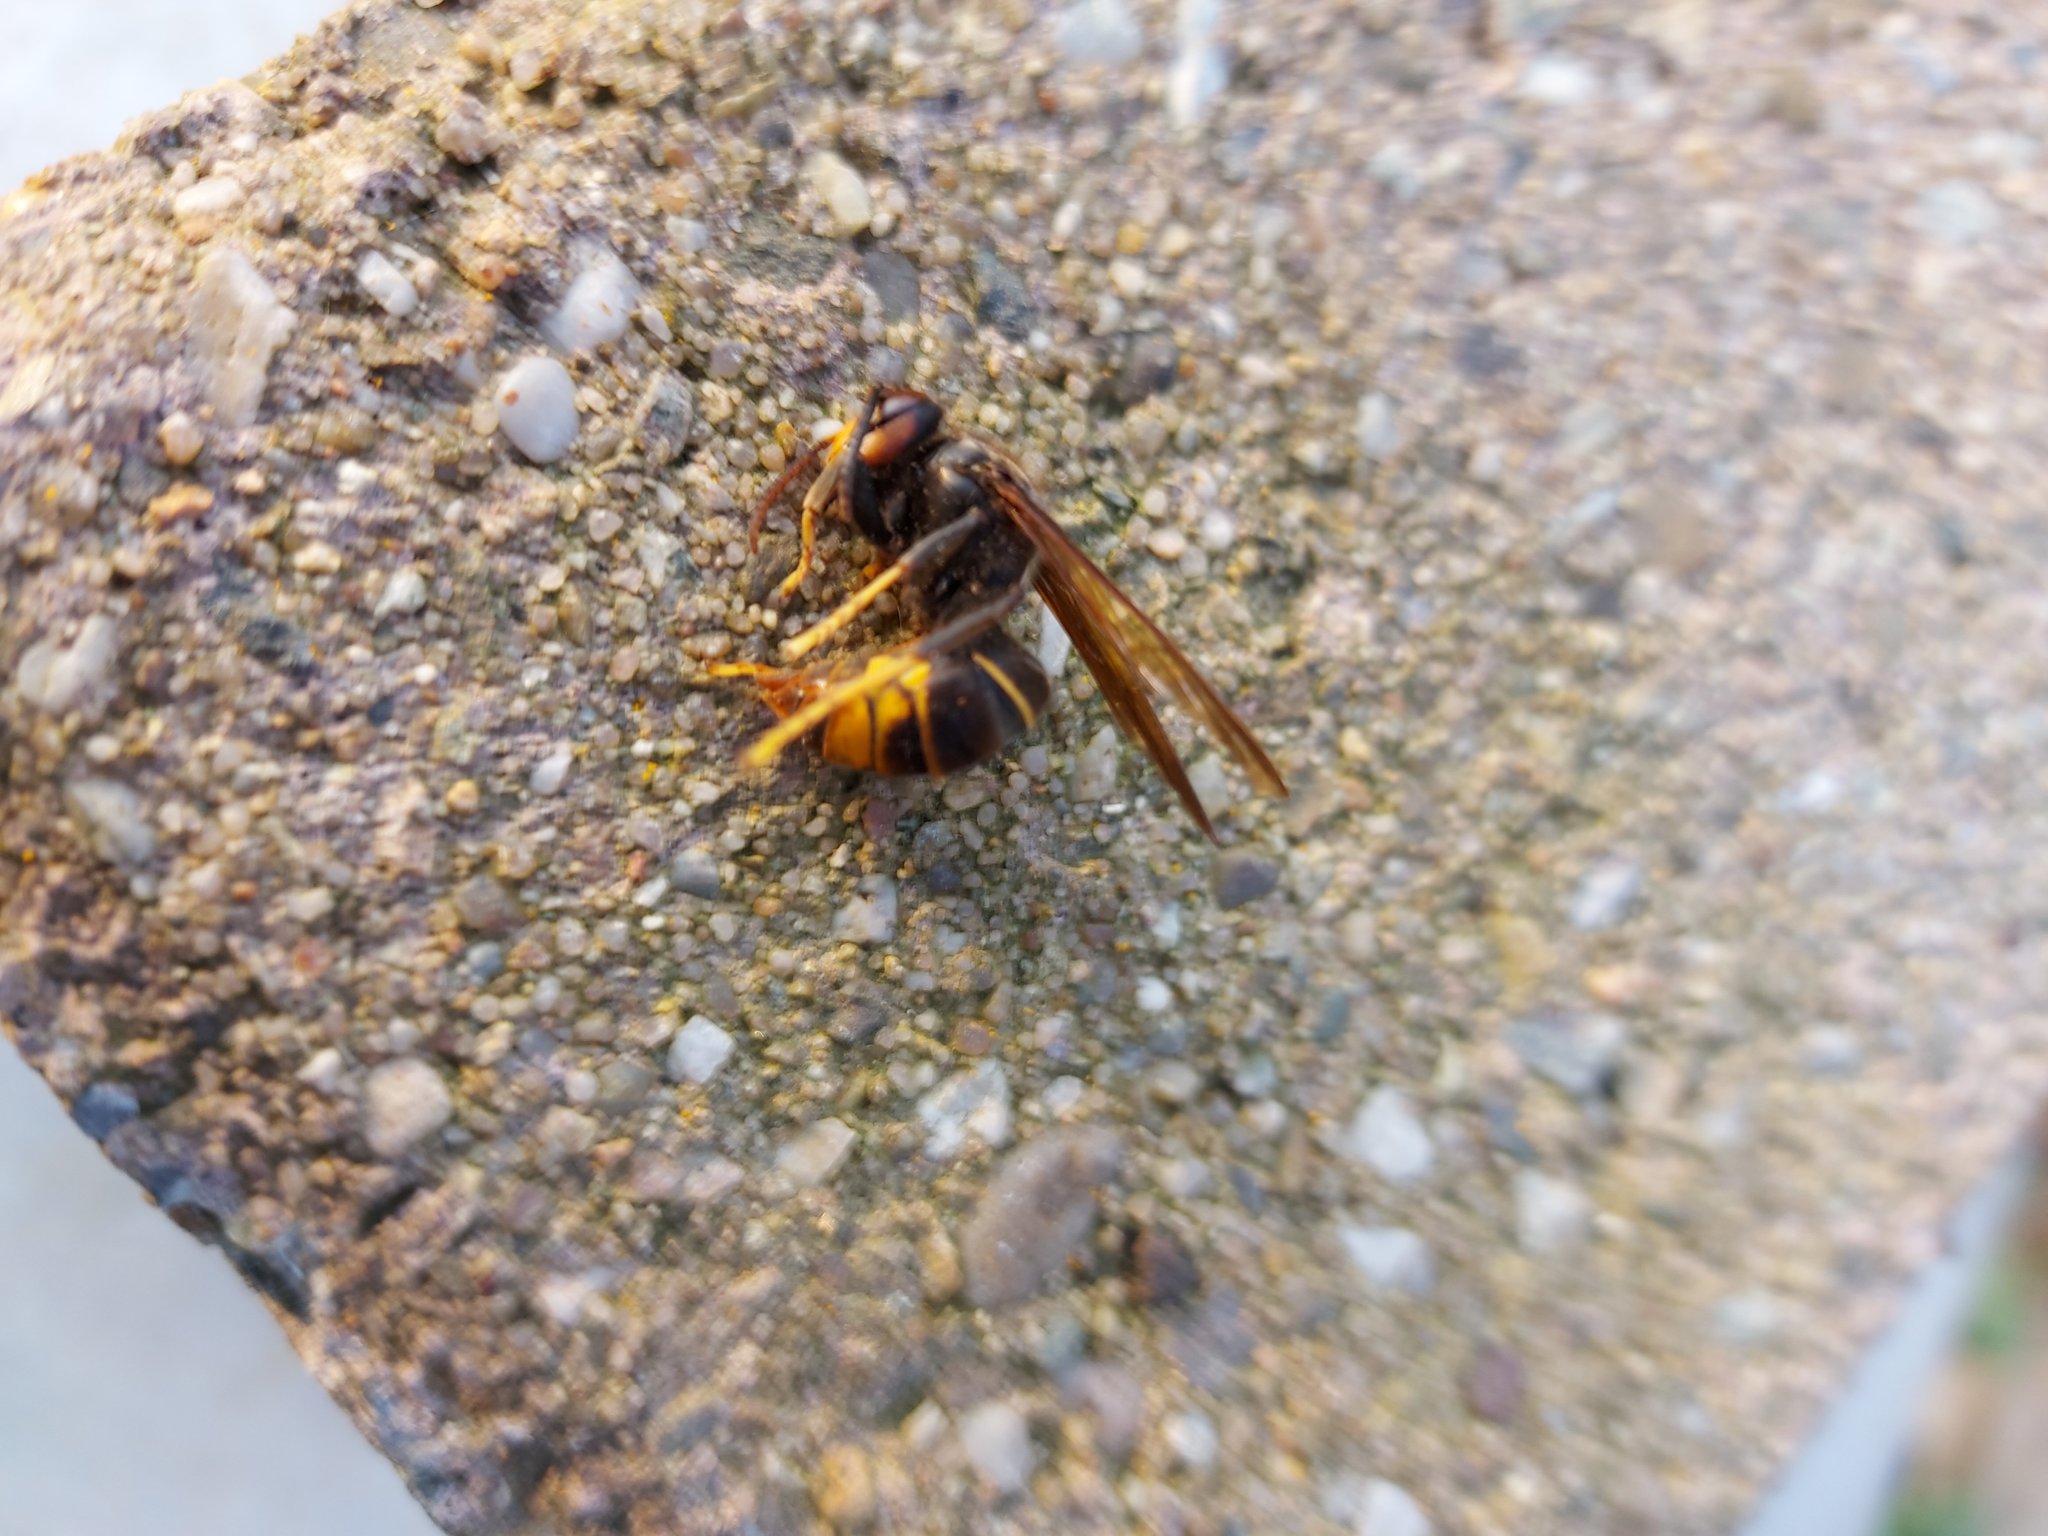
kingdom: Animalia
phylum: Arthropoda
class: Insecta
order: Hymenoptera
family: Vespidae
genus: Vespa
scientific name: Vespa velutina
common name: Asian hornet
